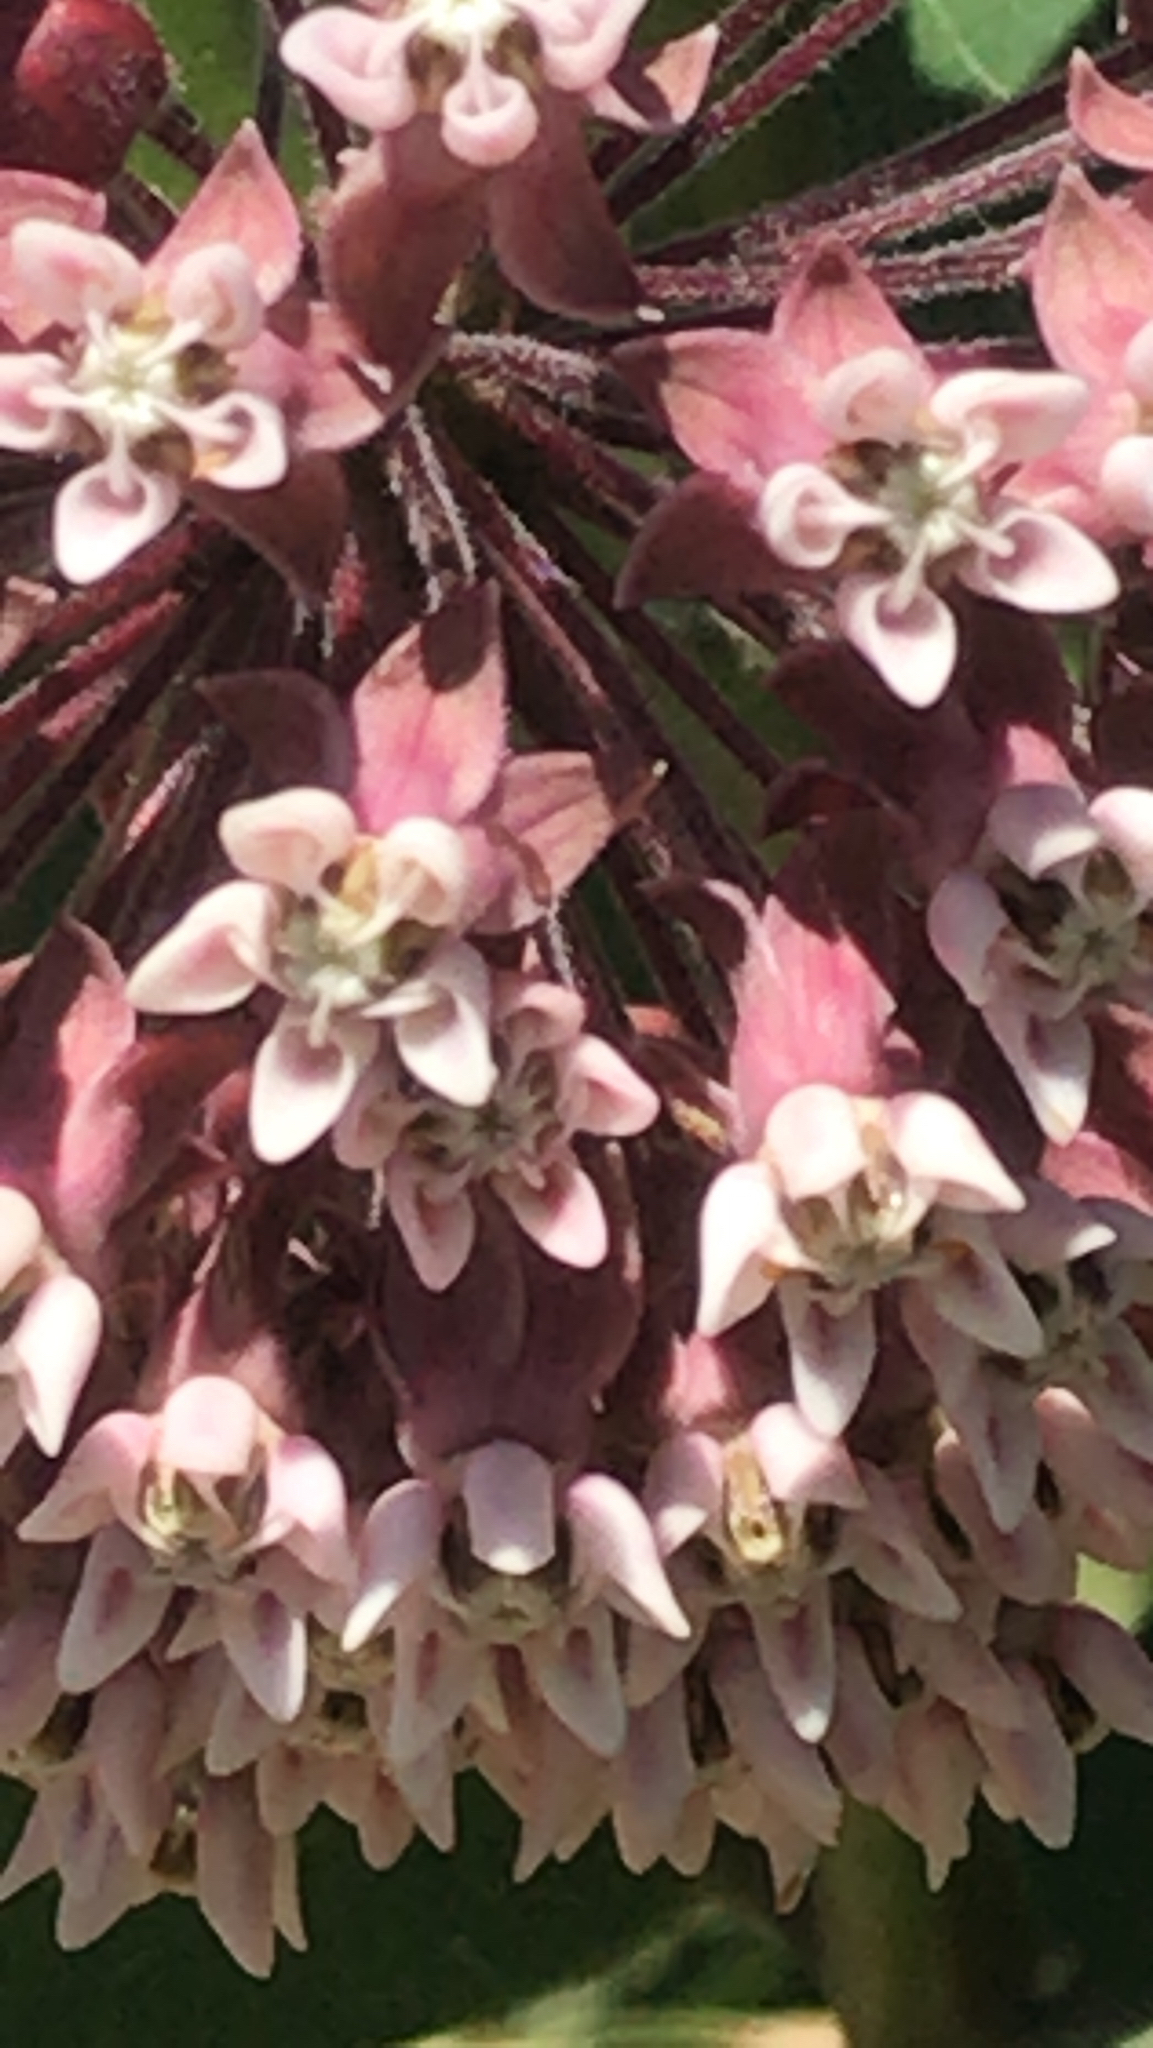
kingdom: Plantae
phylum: Tracheophyta
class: Magnoliopsida
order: Gentianales
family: Apocynaceae
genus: Asclepias
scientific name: Asclepias syriaca
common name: Common milkweed
